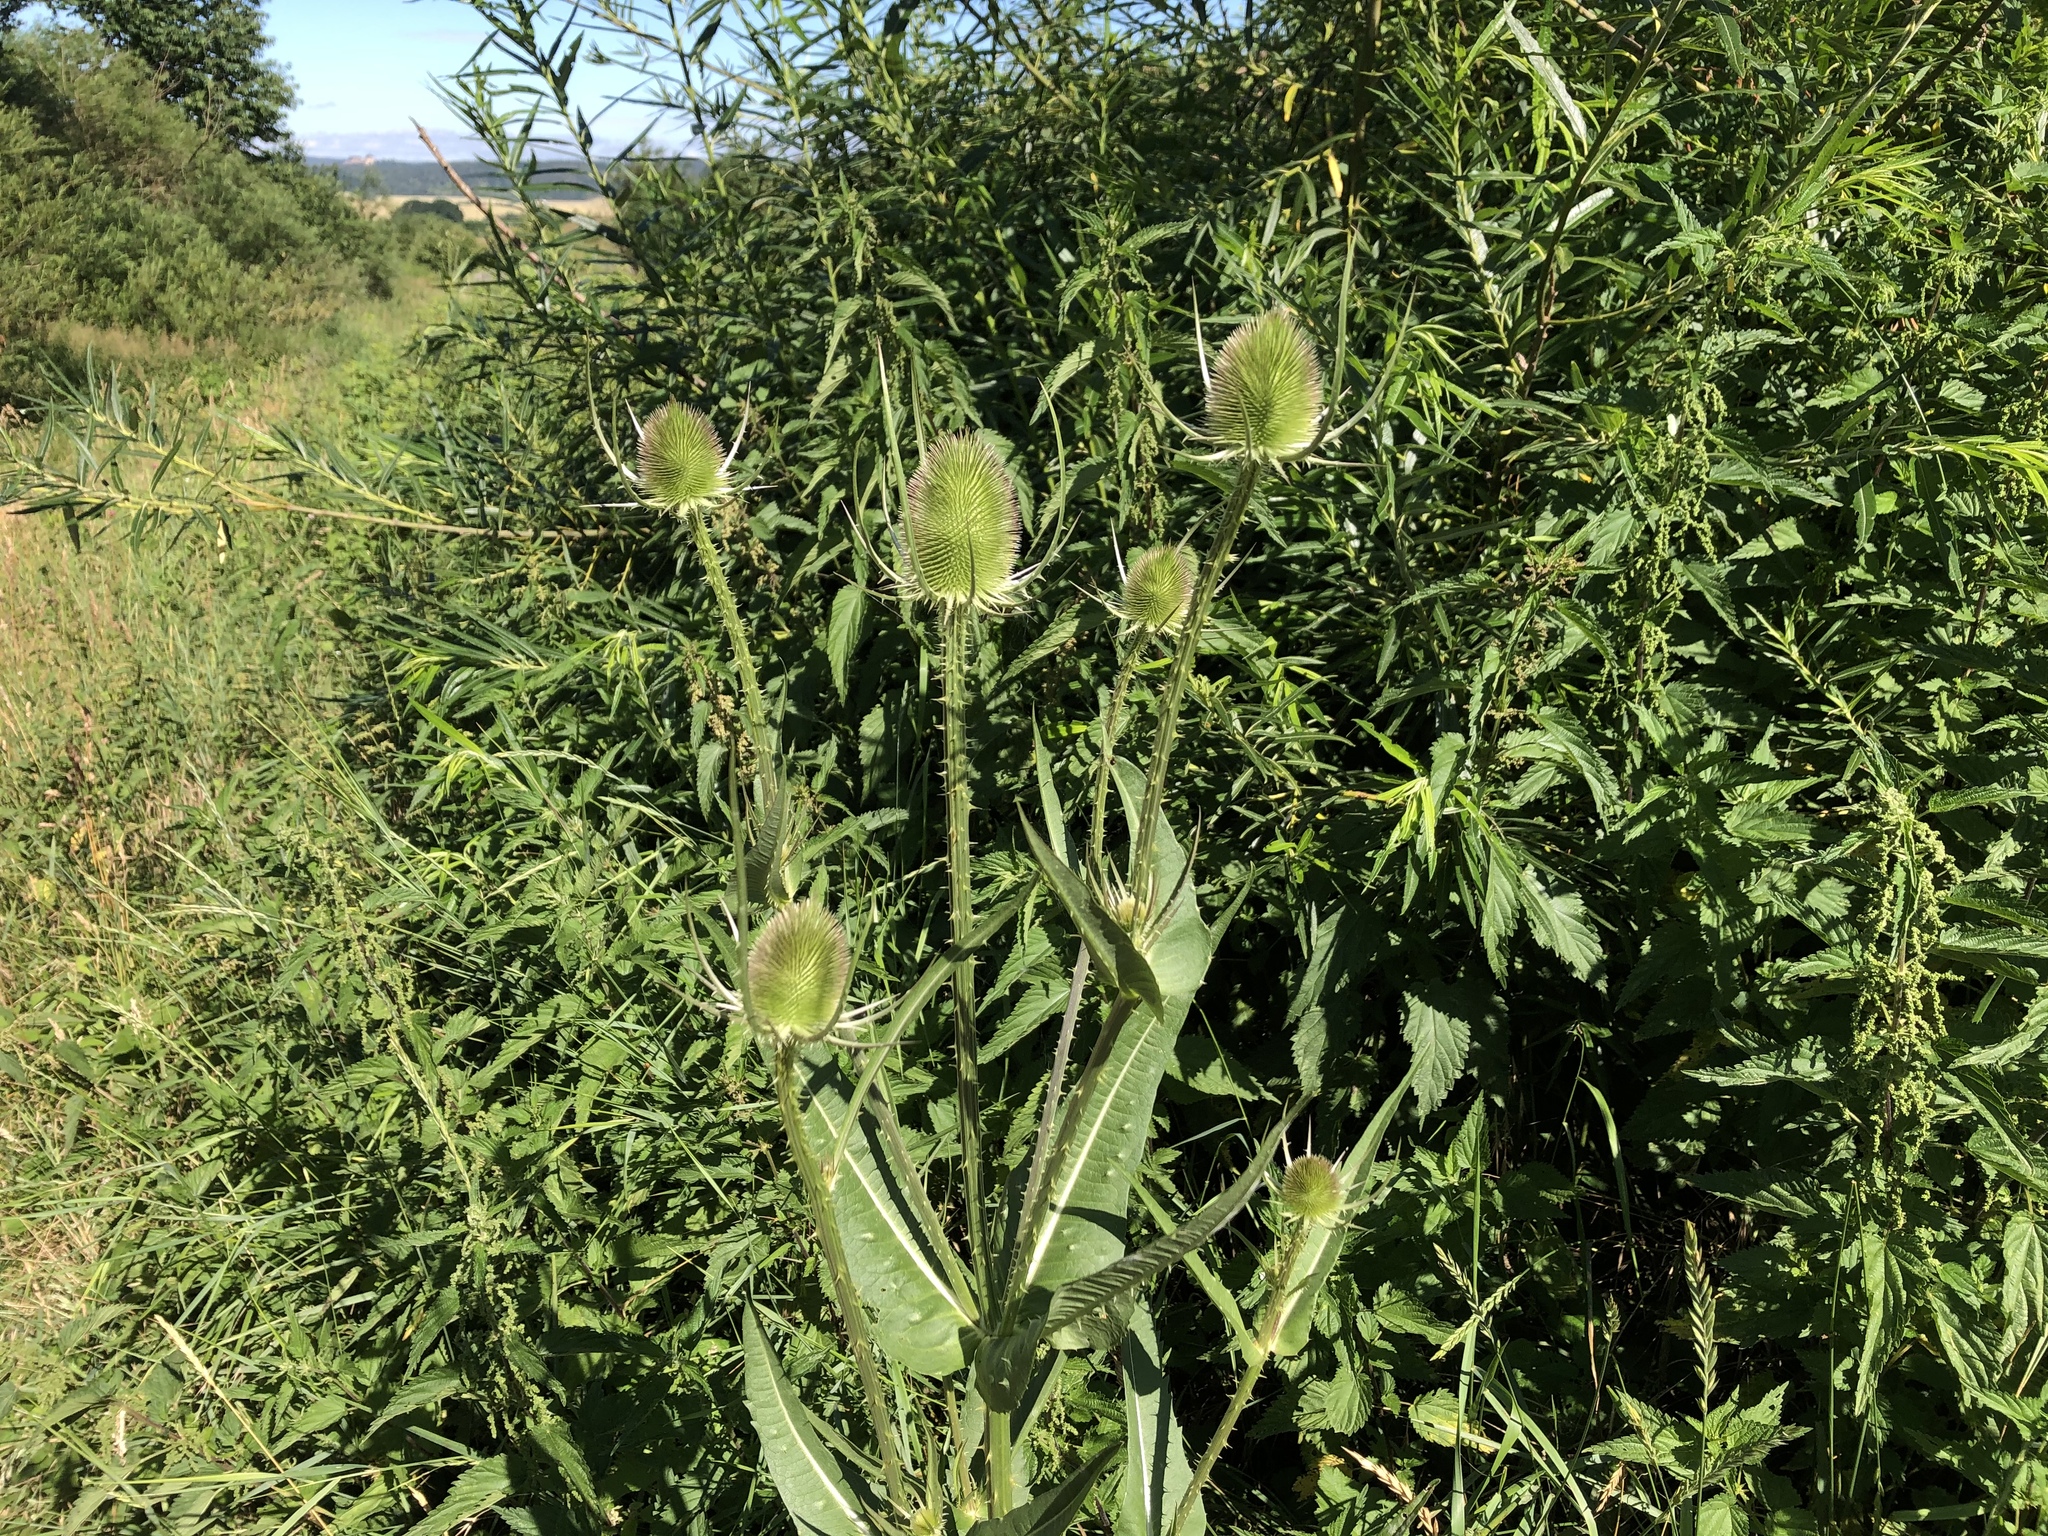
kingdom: Plantae
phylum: Tracheophyta
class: Magnoliopsida
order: Dipsacales
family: Caprifoliaceae
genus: Dipsacus
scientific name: Dipsacus fullonum
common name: Teasel
